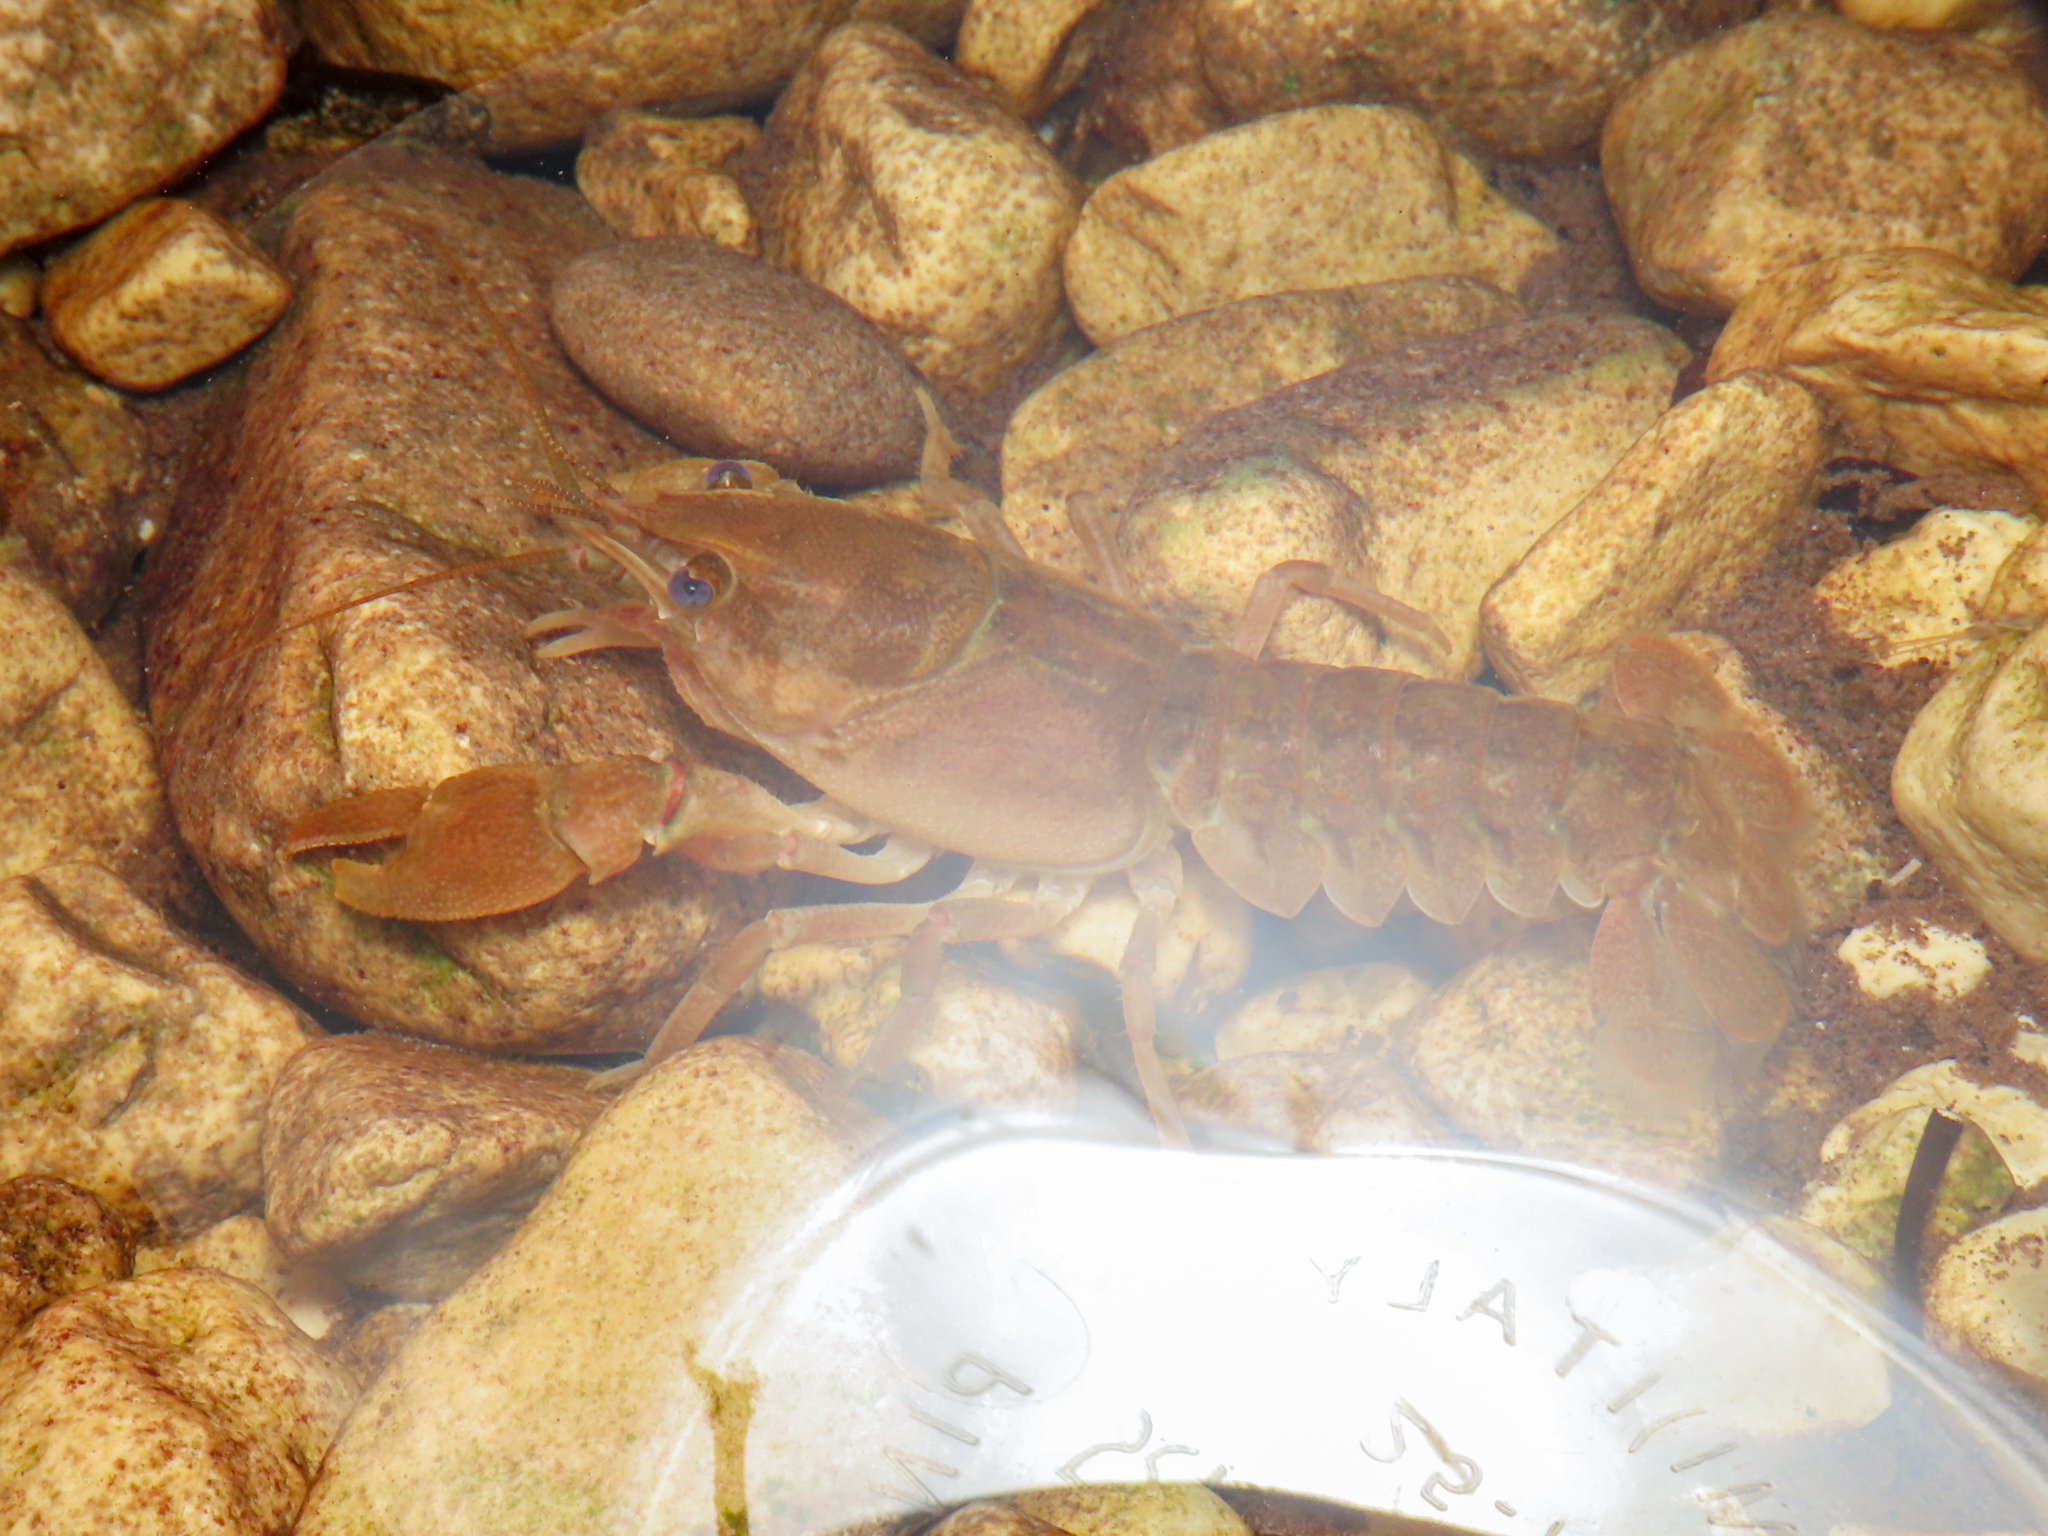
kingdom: Animalia
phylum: Arthropoda
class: Malacostraca
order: Decapoda
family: Astacidae
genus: Austropotamobius
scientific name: Austropotamobius pallipes
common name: White-clawed crayfish
